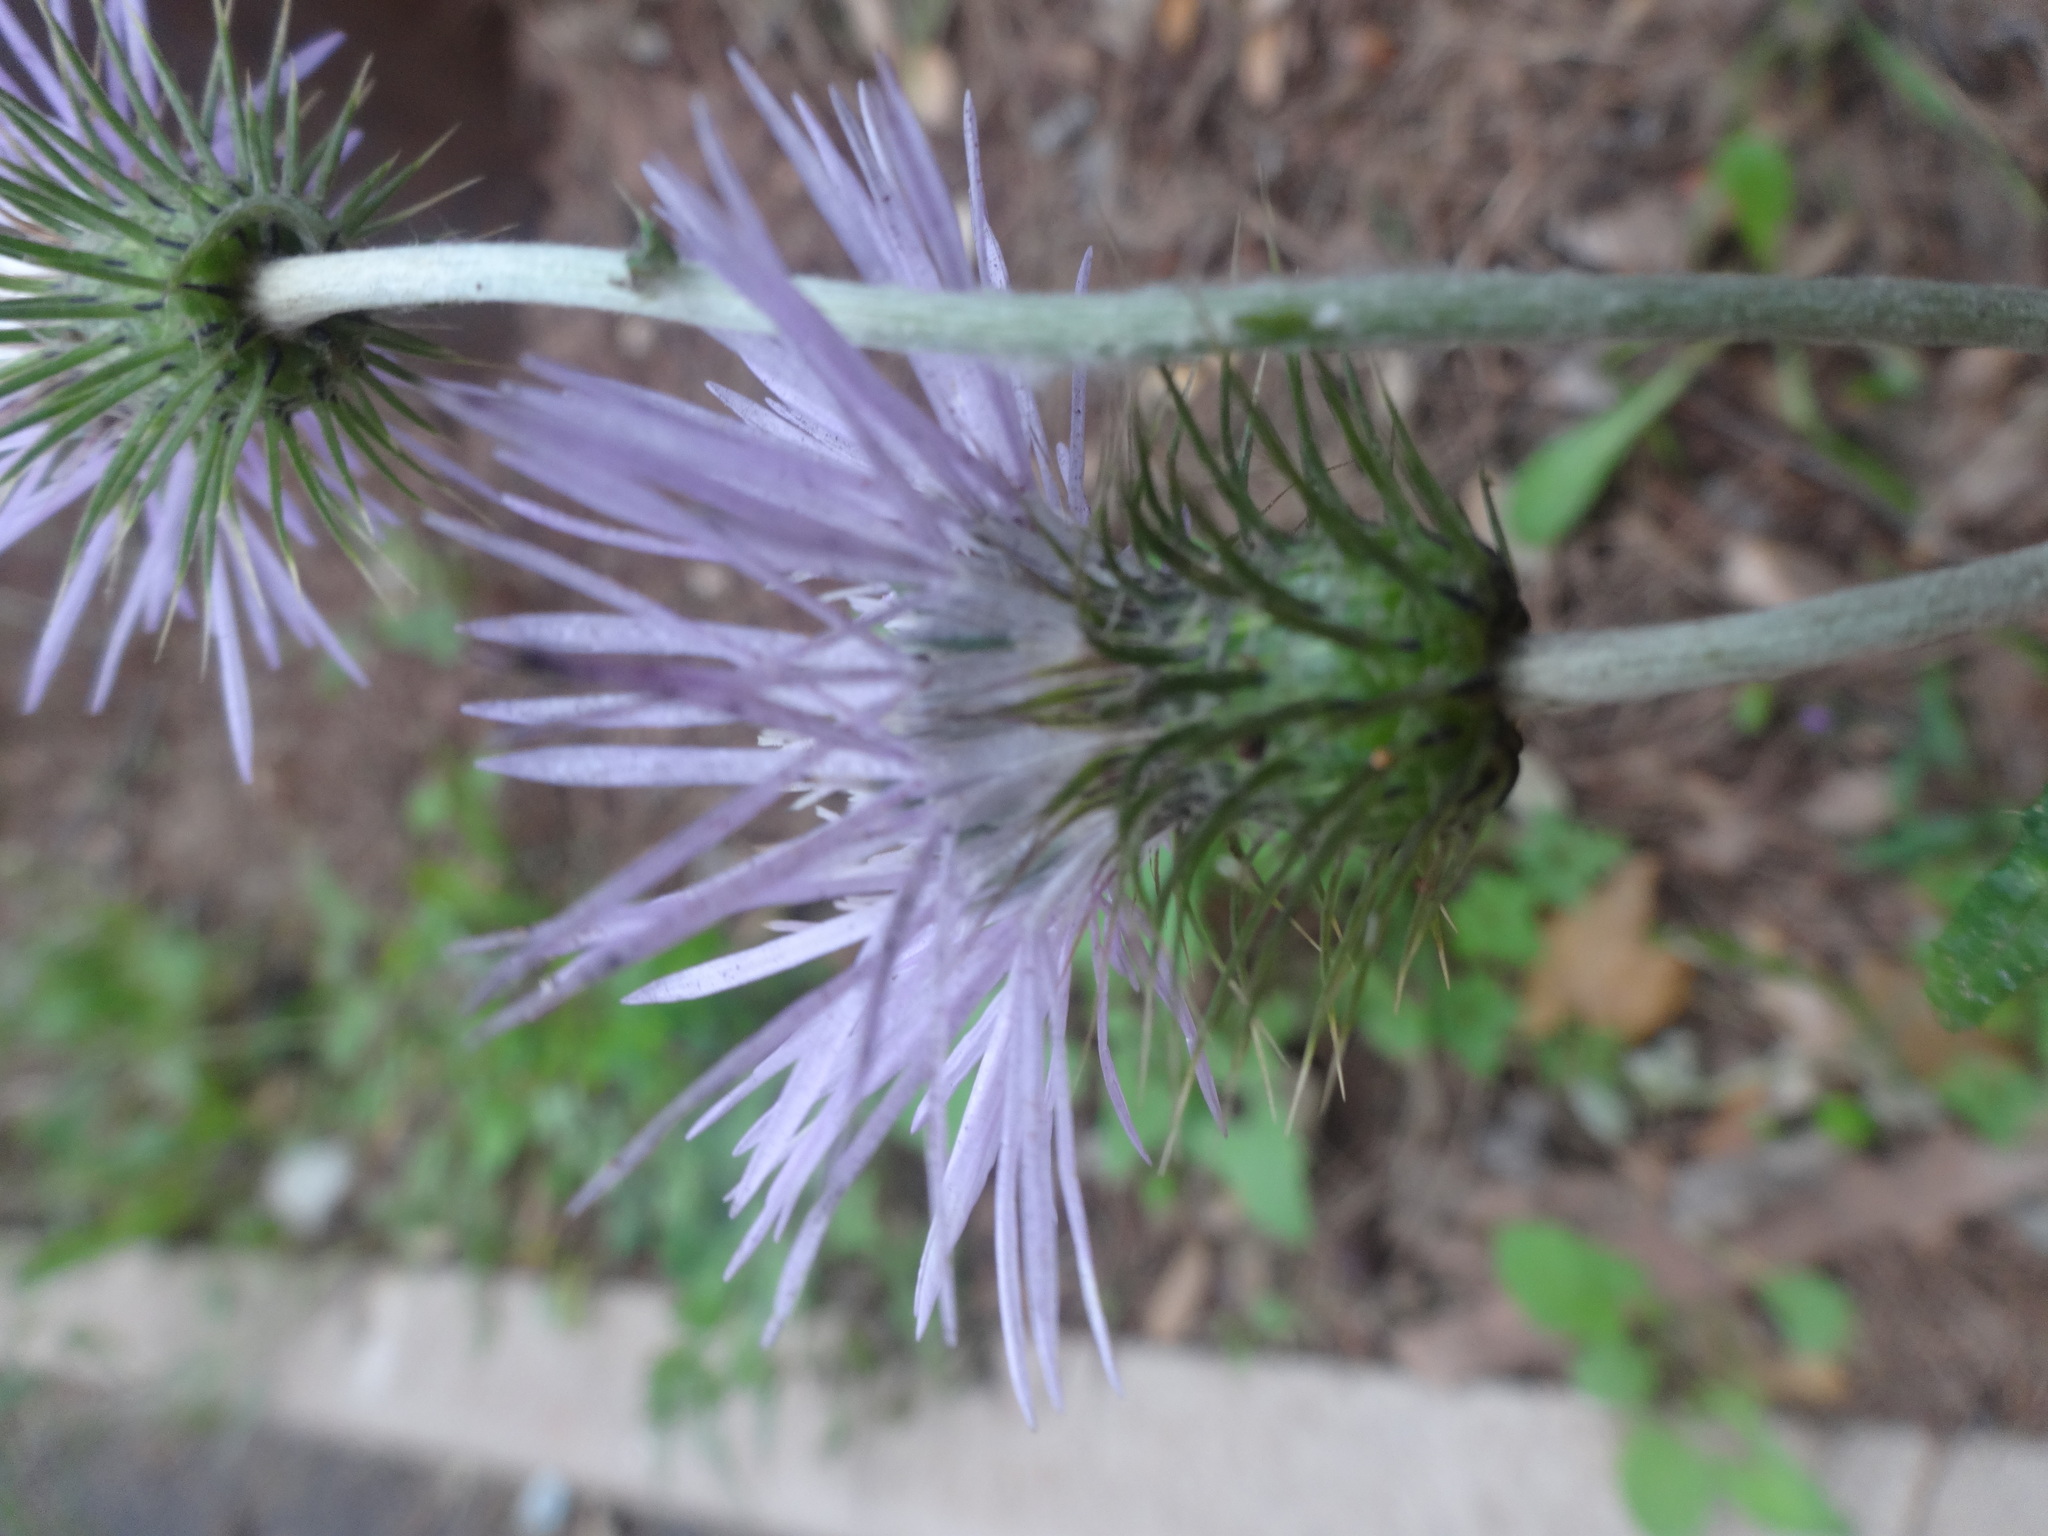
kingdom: Plantae
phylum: Tracheophyta
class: Magnoliopsida
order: Asterales
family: Asteraceae
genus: Galactites
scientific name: Galactites tomentosa
